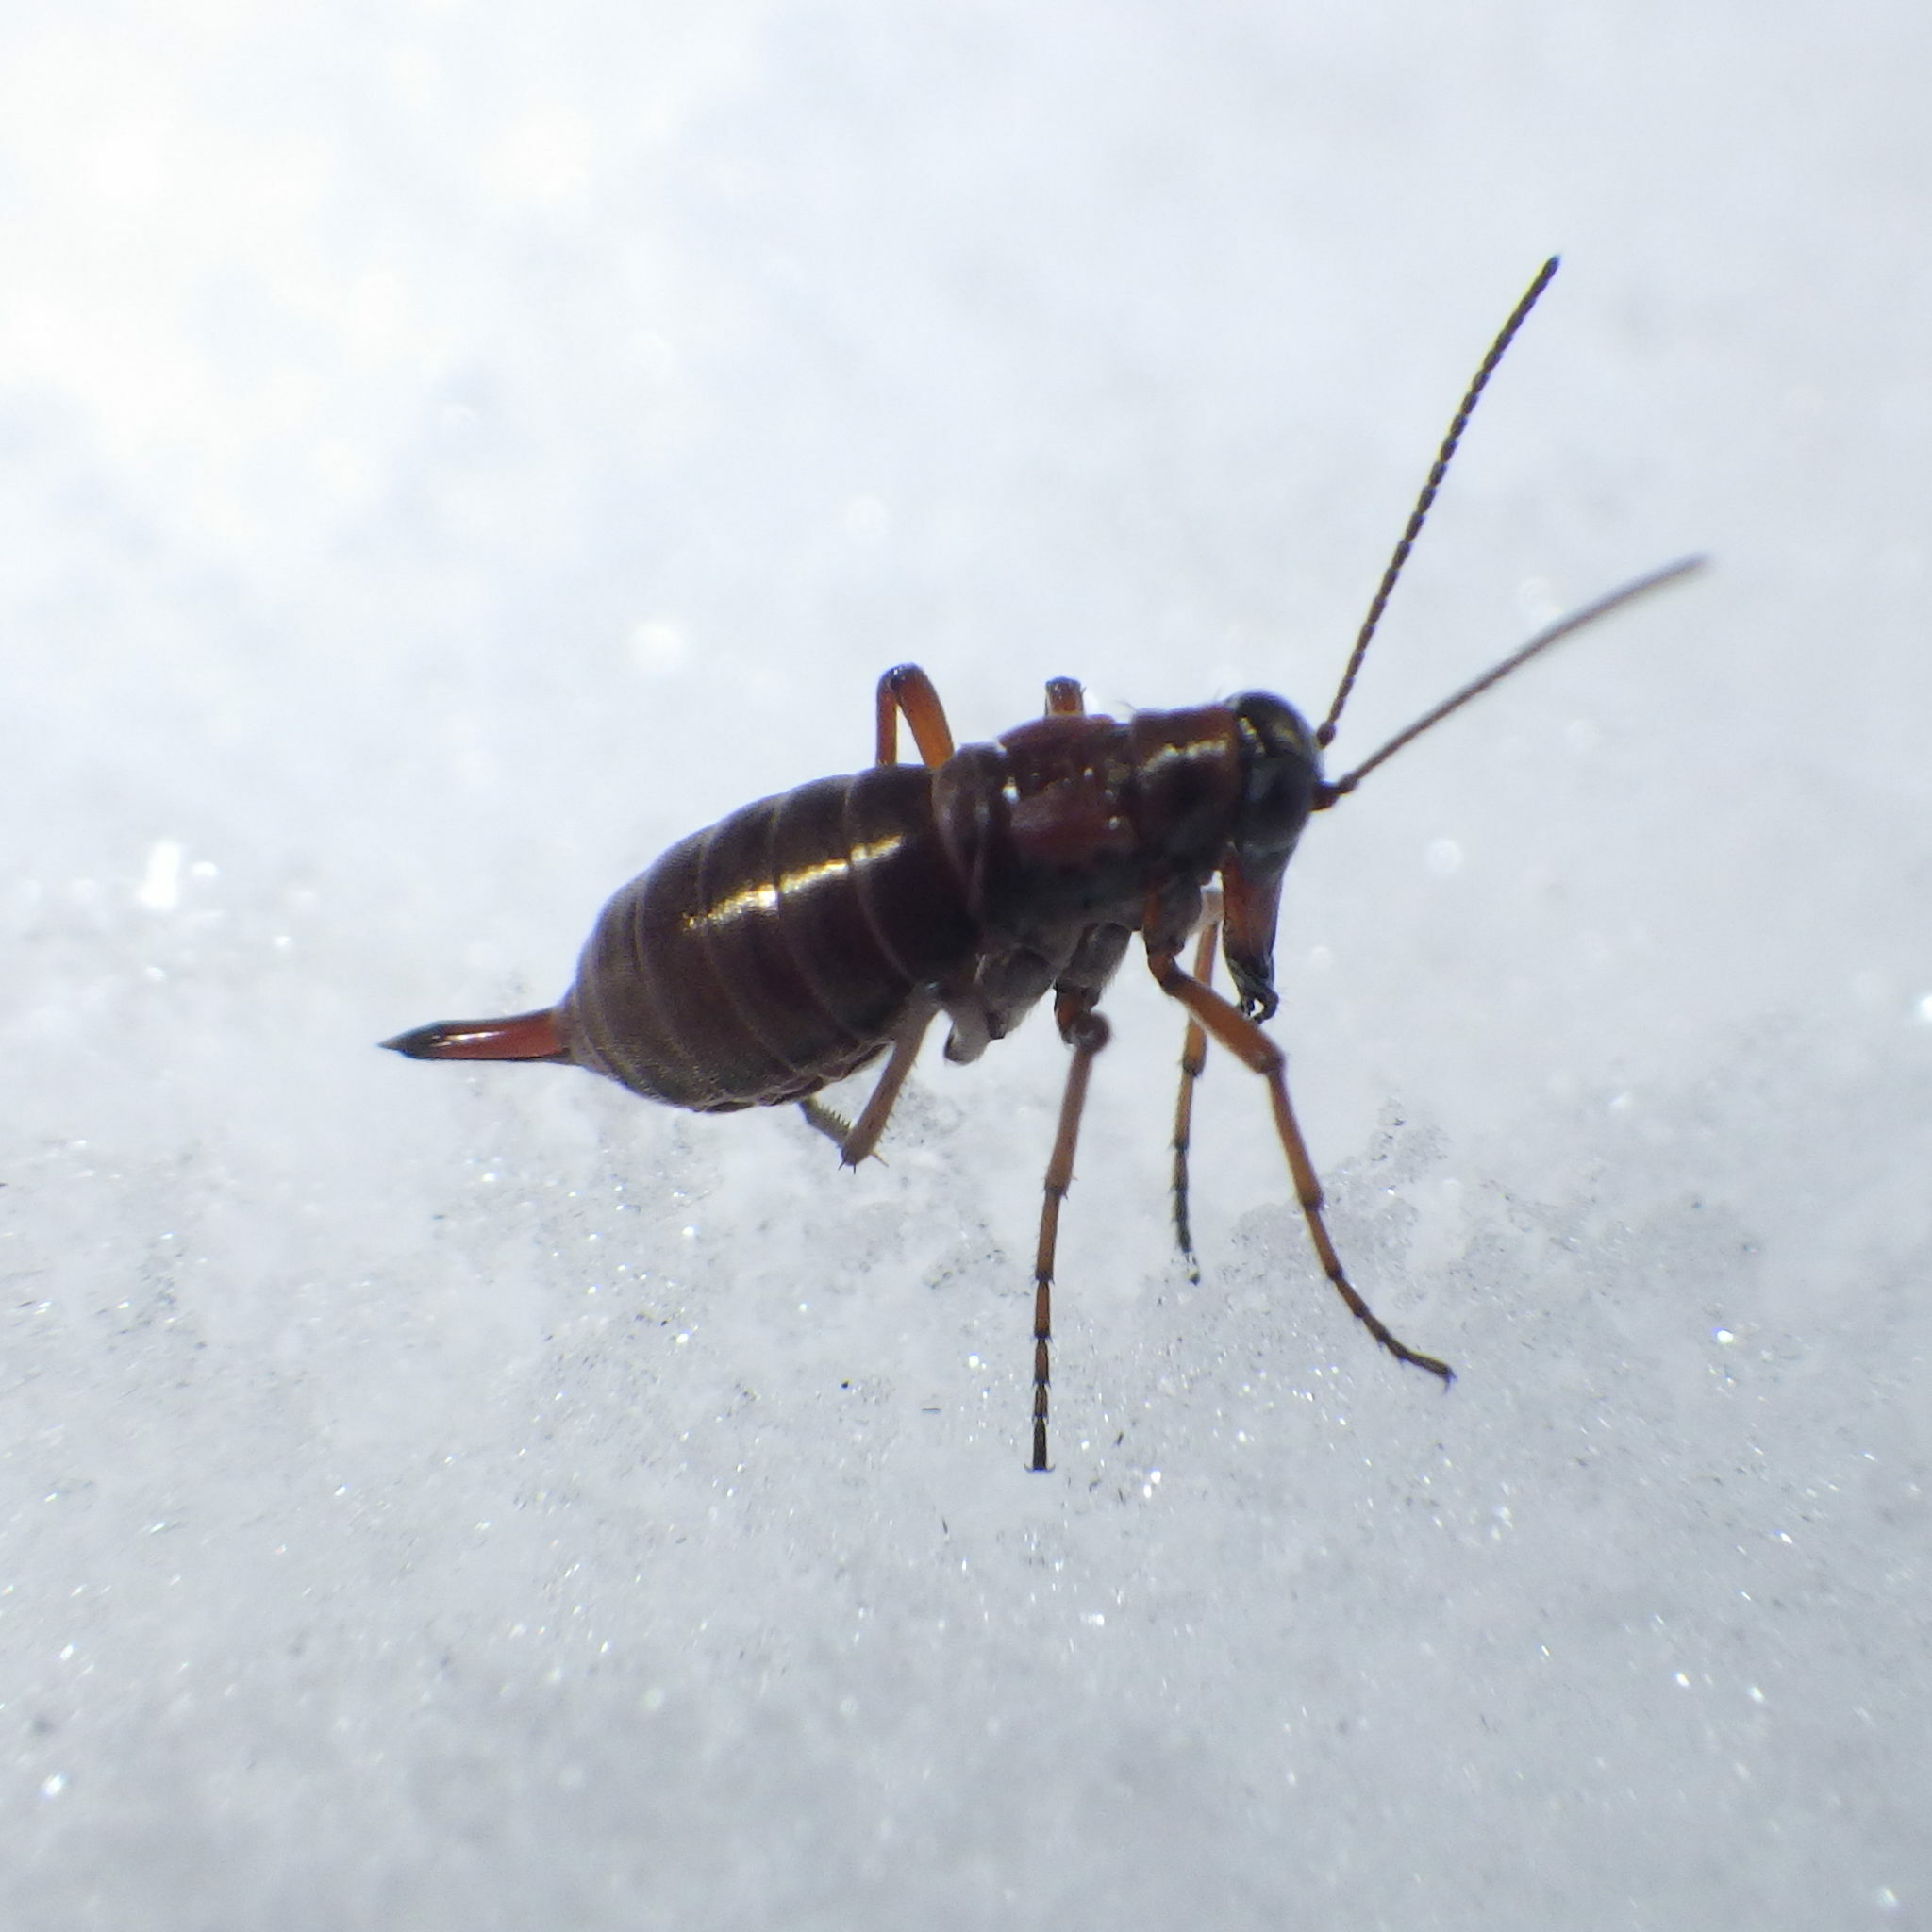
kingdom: Animalia
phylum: Arthropoda
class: Insecta
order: Mecoptera
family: Boreidae
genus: Boreus
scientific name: Boreus nivoriundus
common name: Snow-born boreus
